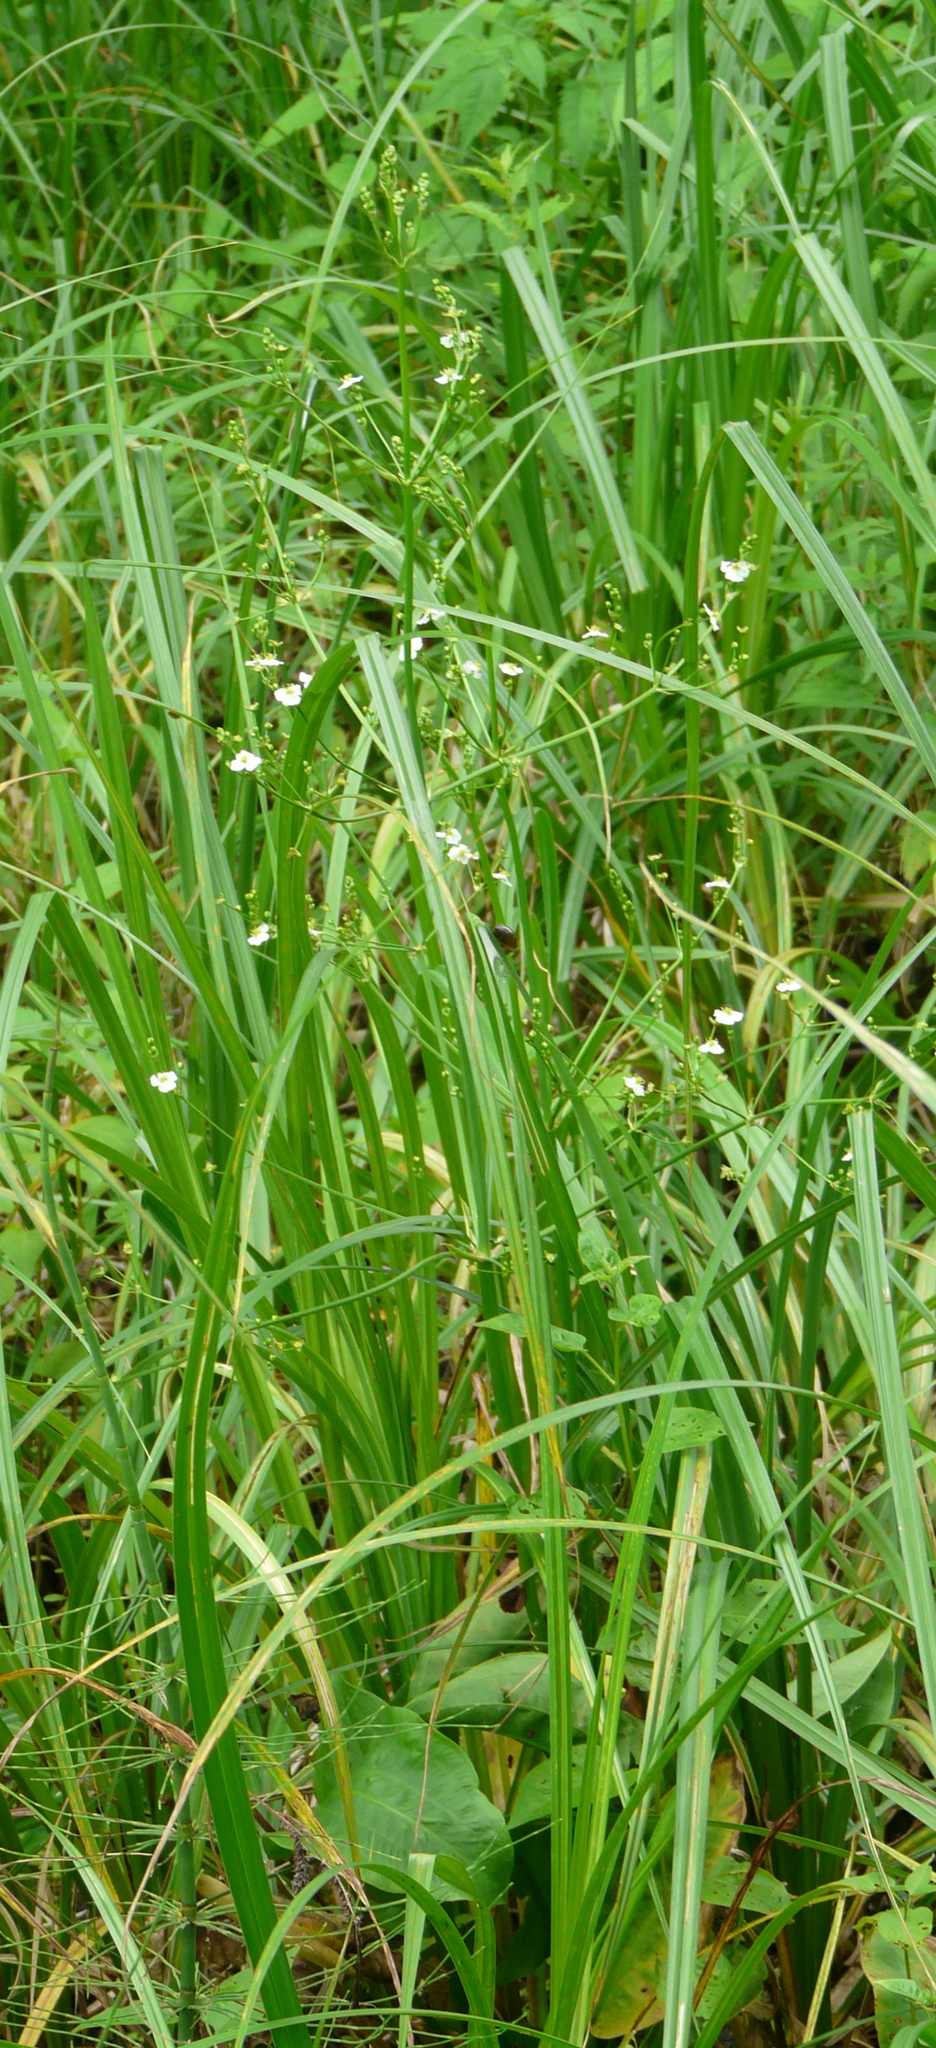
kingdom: Plantae
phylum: Tracheophyta
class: Liliopsida
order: Alismatales
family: Alismataceae
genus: Alisma
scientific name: Alisma plantago-aquatica
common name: Water-plantain
